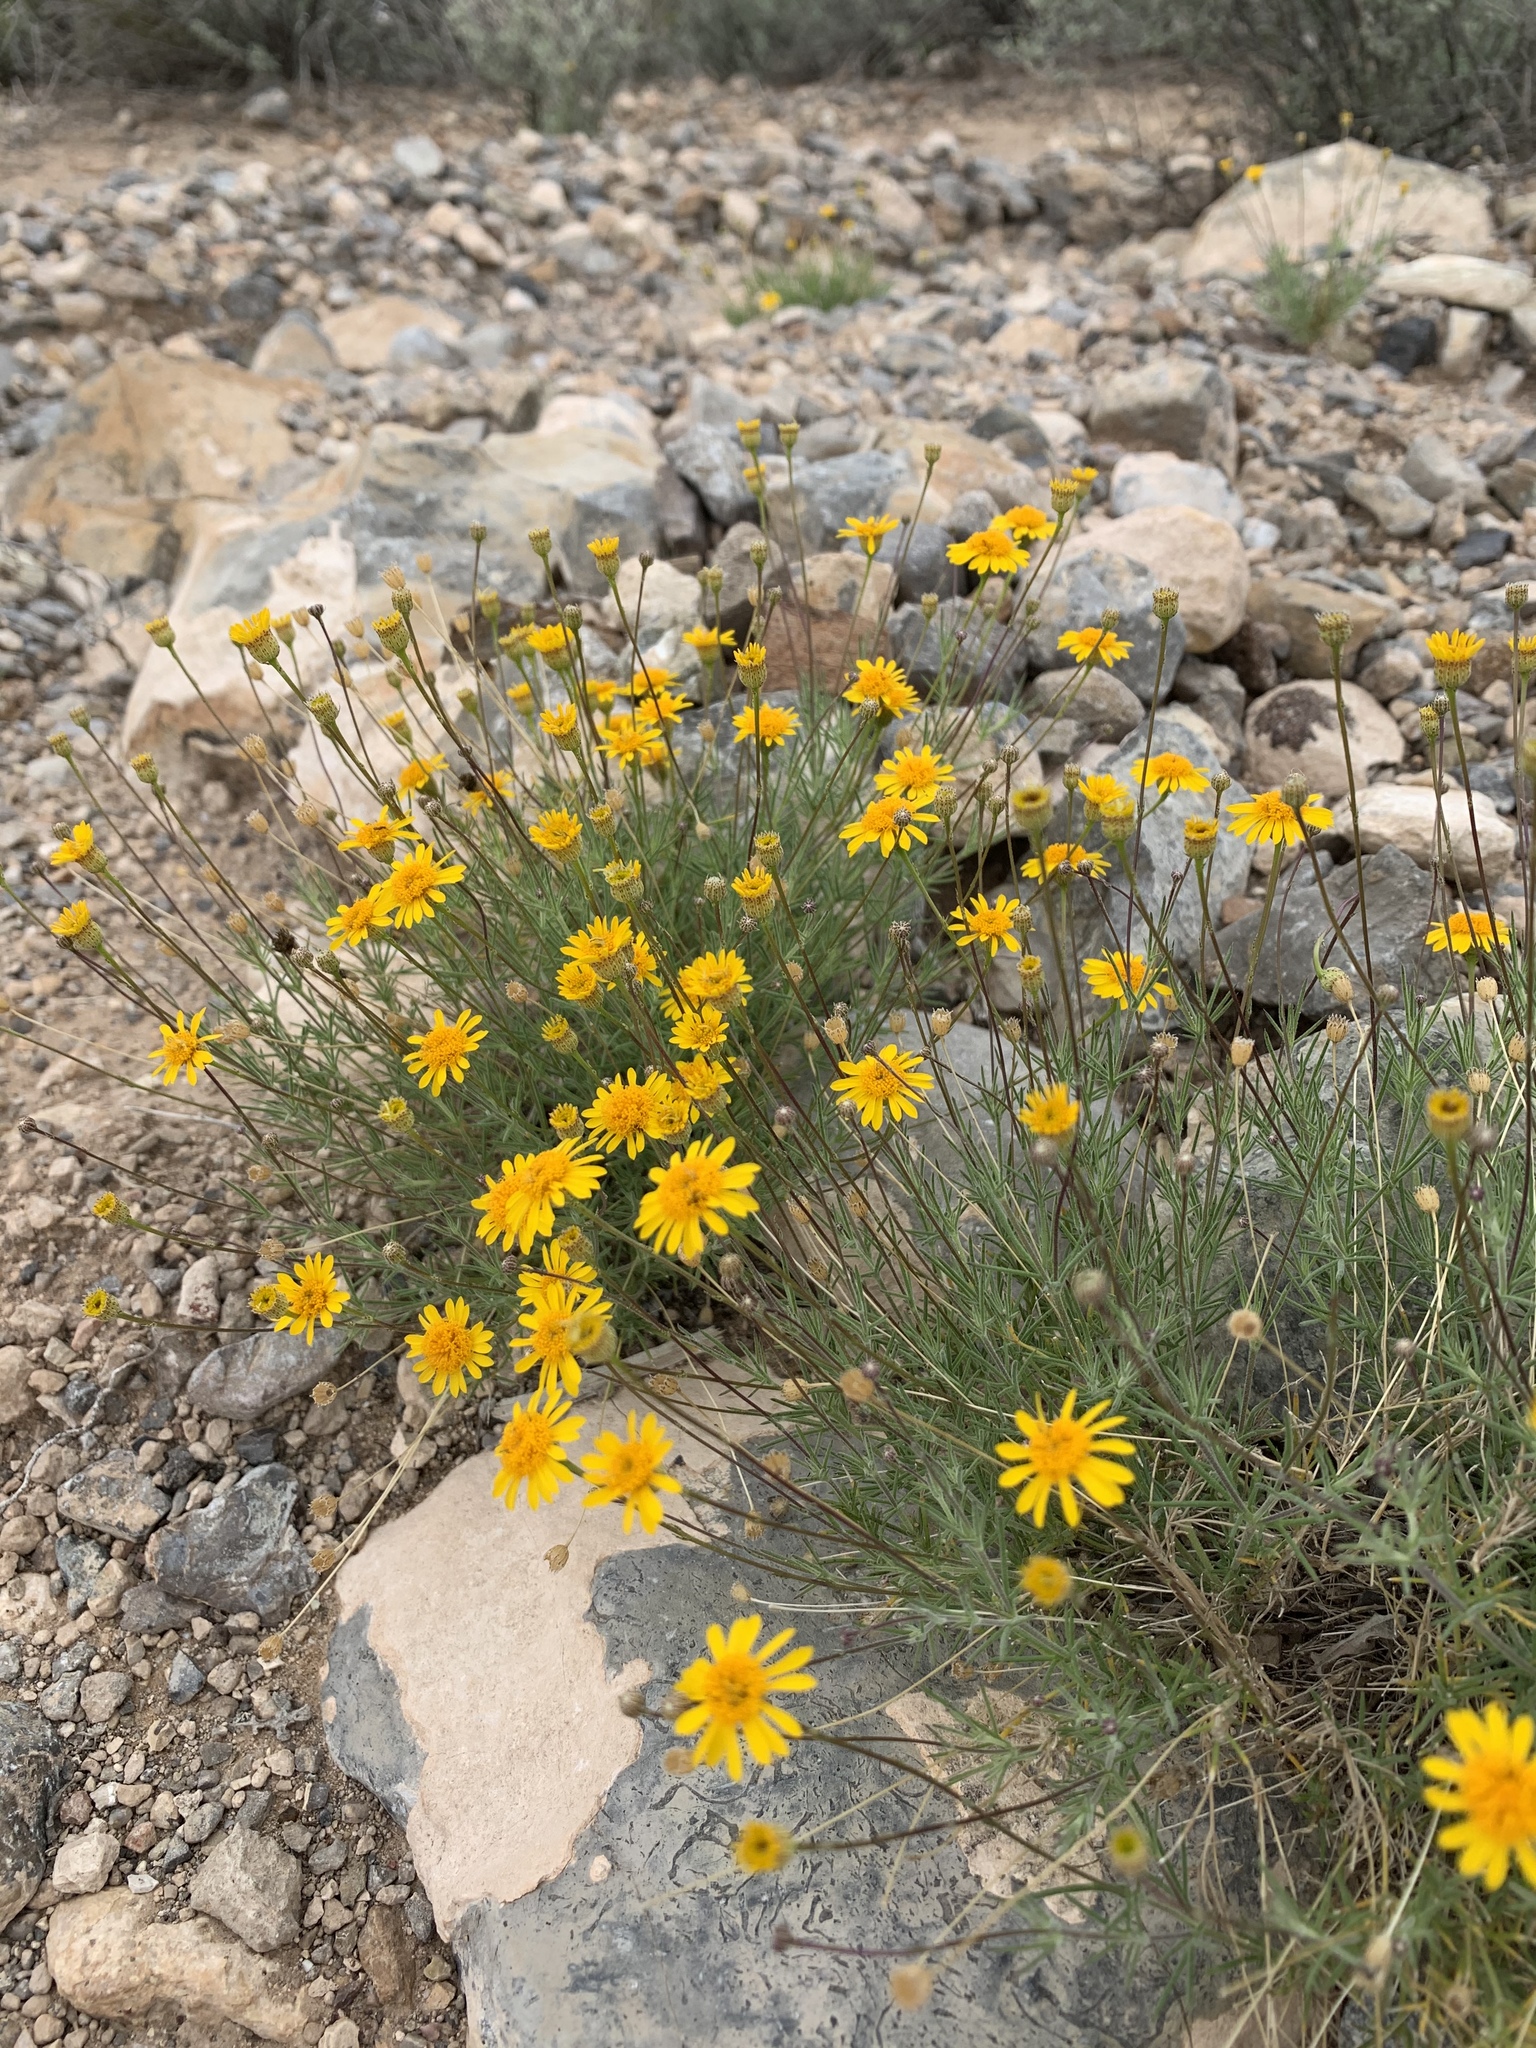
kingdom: Plantae
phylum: Tracheophyta
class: Magnoliopsida
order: Asterales
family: Asteraceae
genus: Thymophylla
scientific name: Thymophylla pentachaeta
